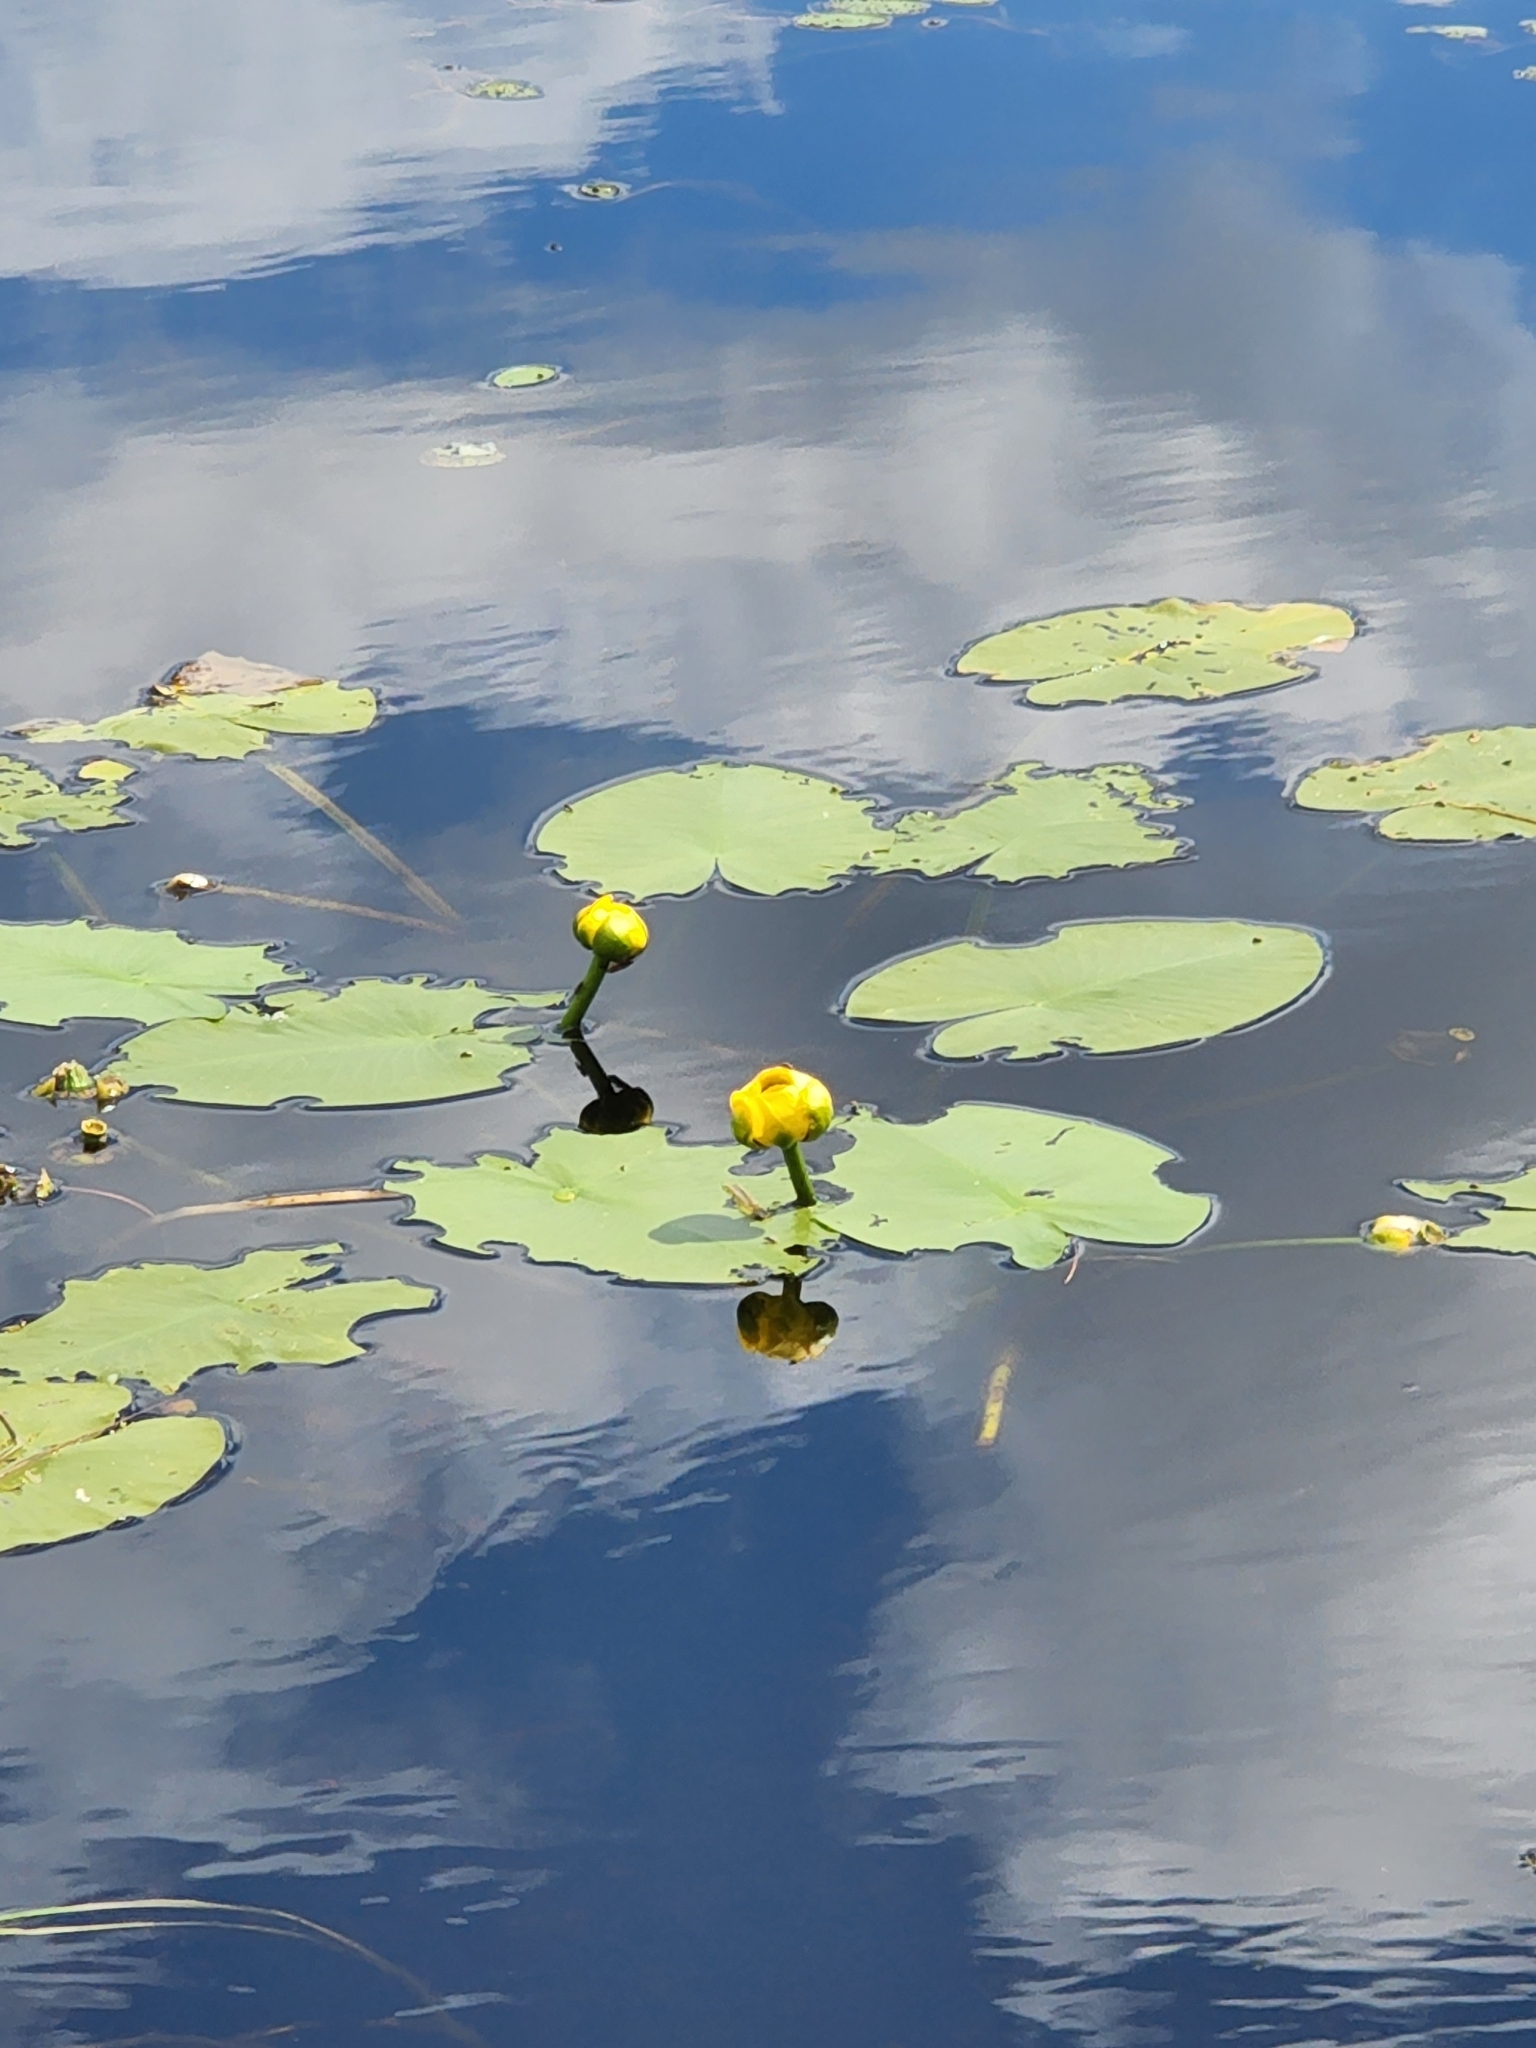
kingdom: Plantae
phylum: Tracheophyta
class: Magnoliopsida
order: Nymphaeales
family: Nymphaeaceae
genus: Nuphar
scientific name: Nuphar variegata
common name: Beaver-root
